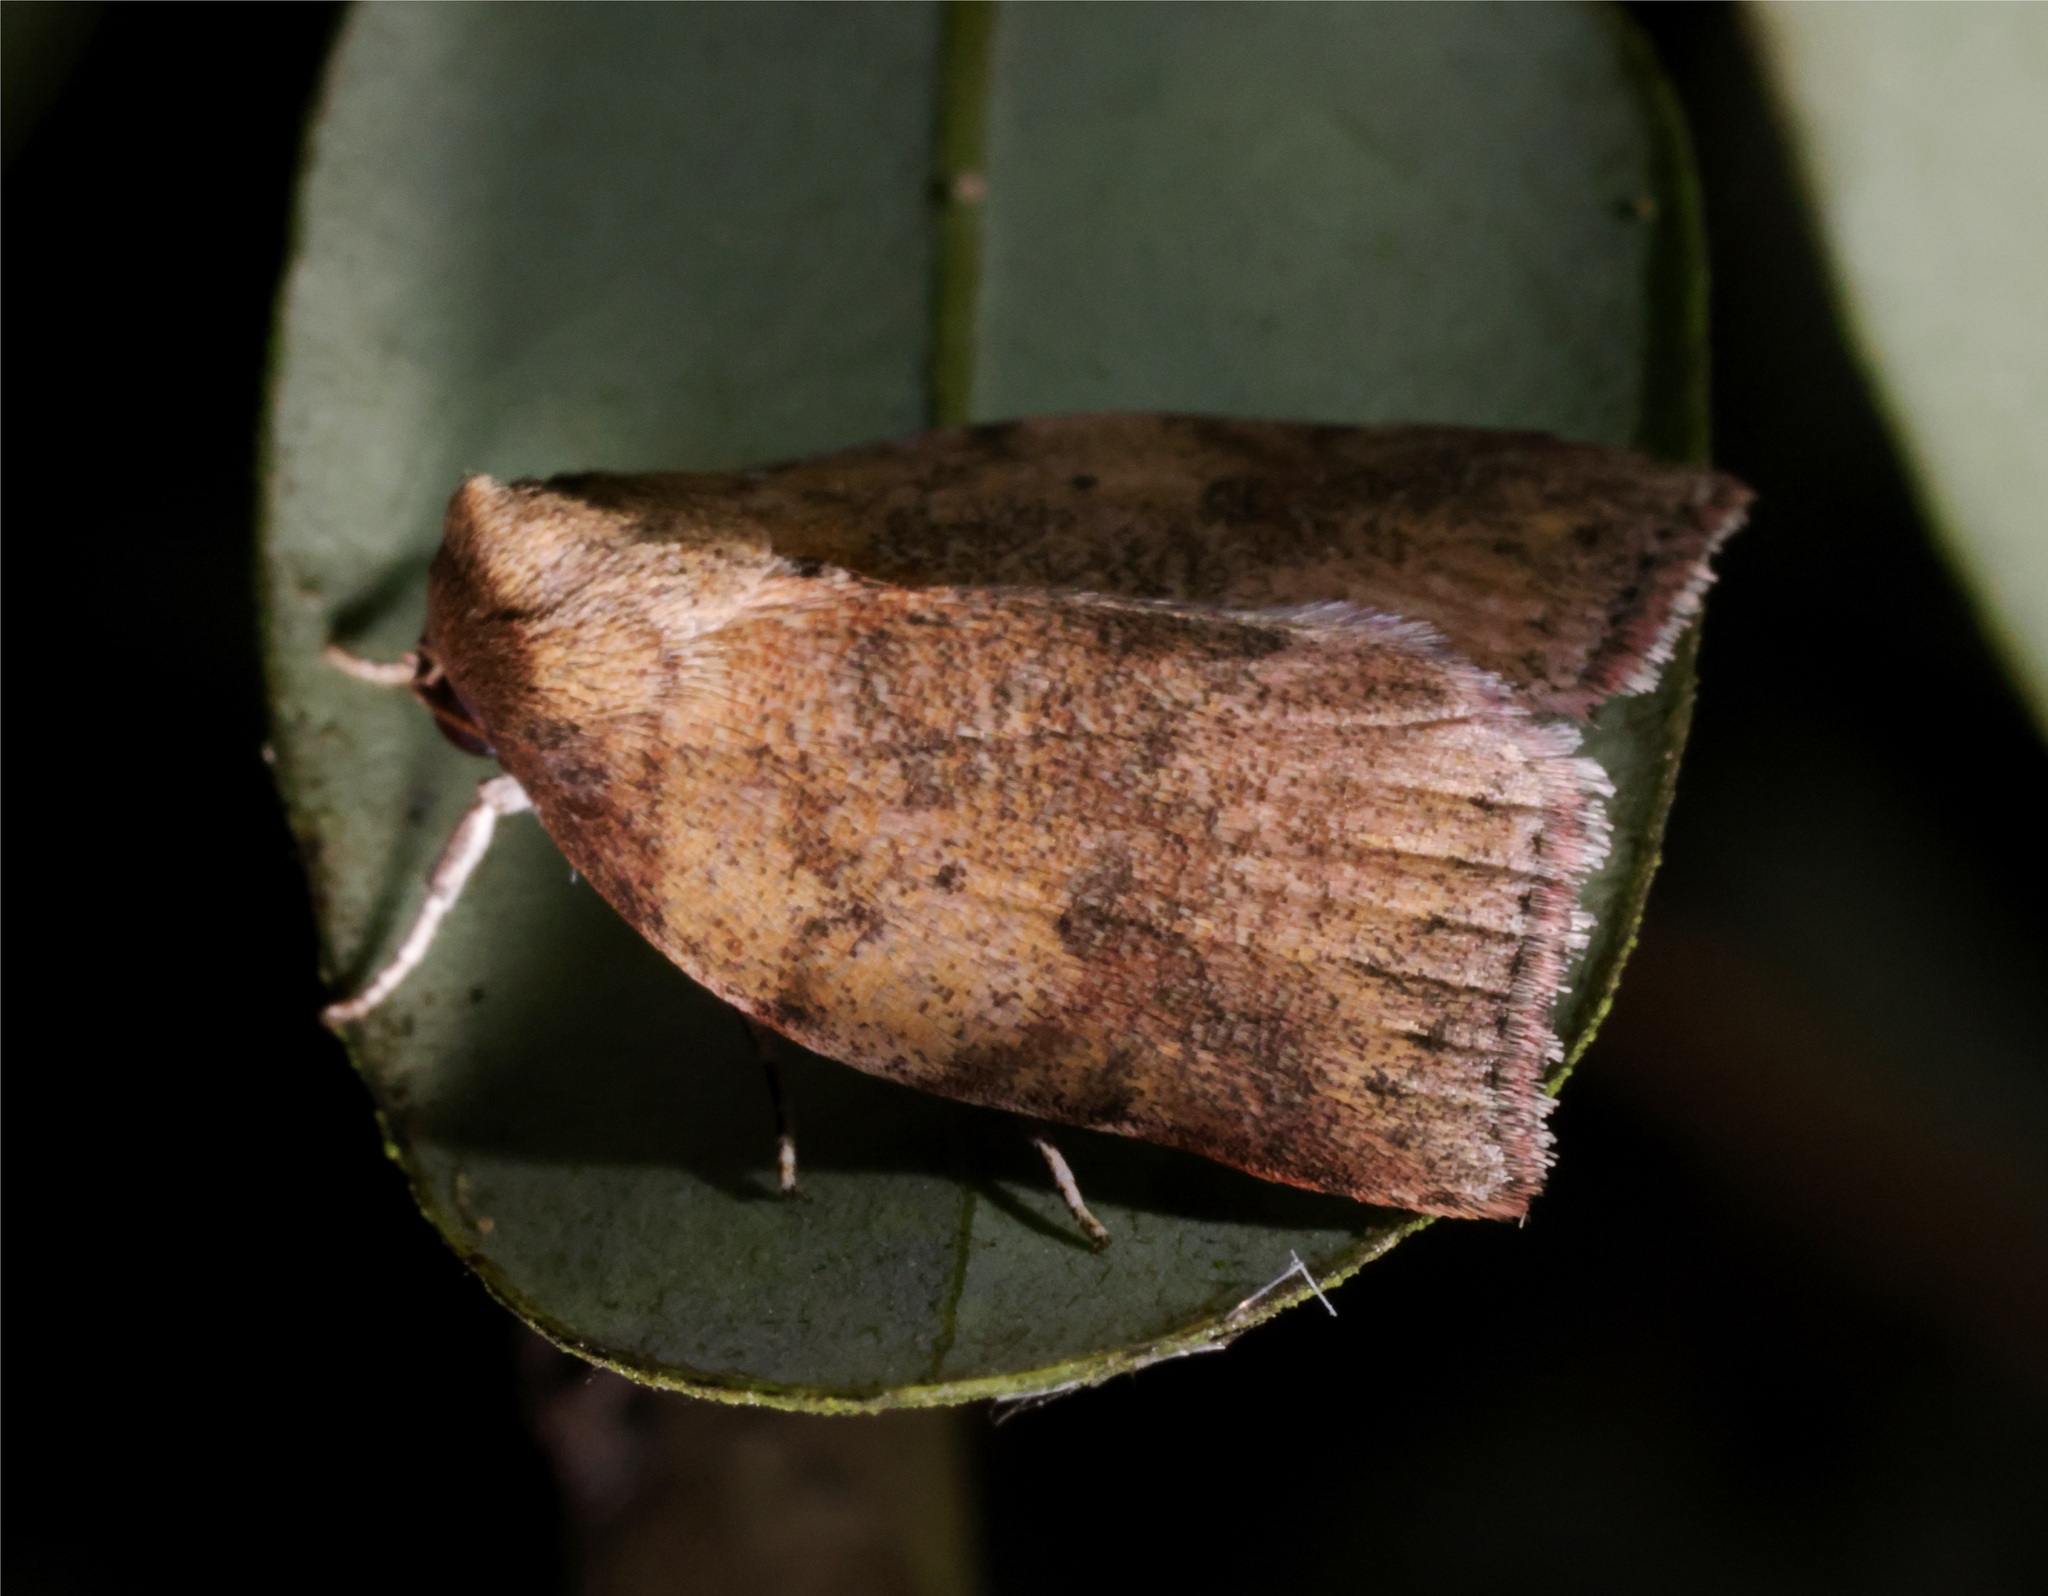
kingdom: Animalia
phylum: Arthropoda
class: Insecta
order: Lepidoptera
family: Nolidae
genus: Beara
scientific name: Beara tortriciformis
